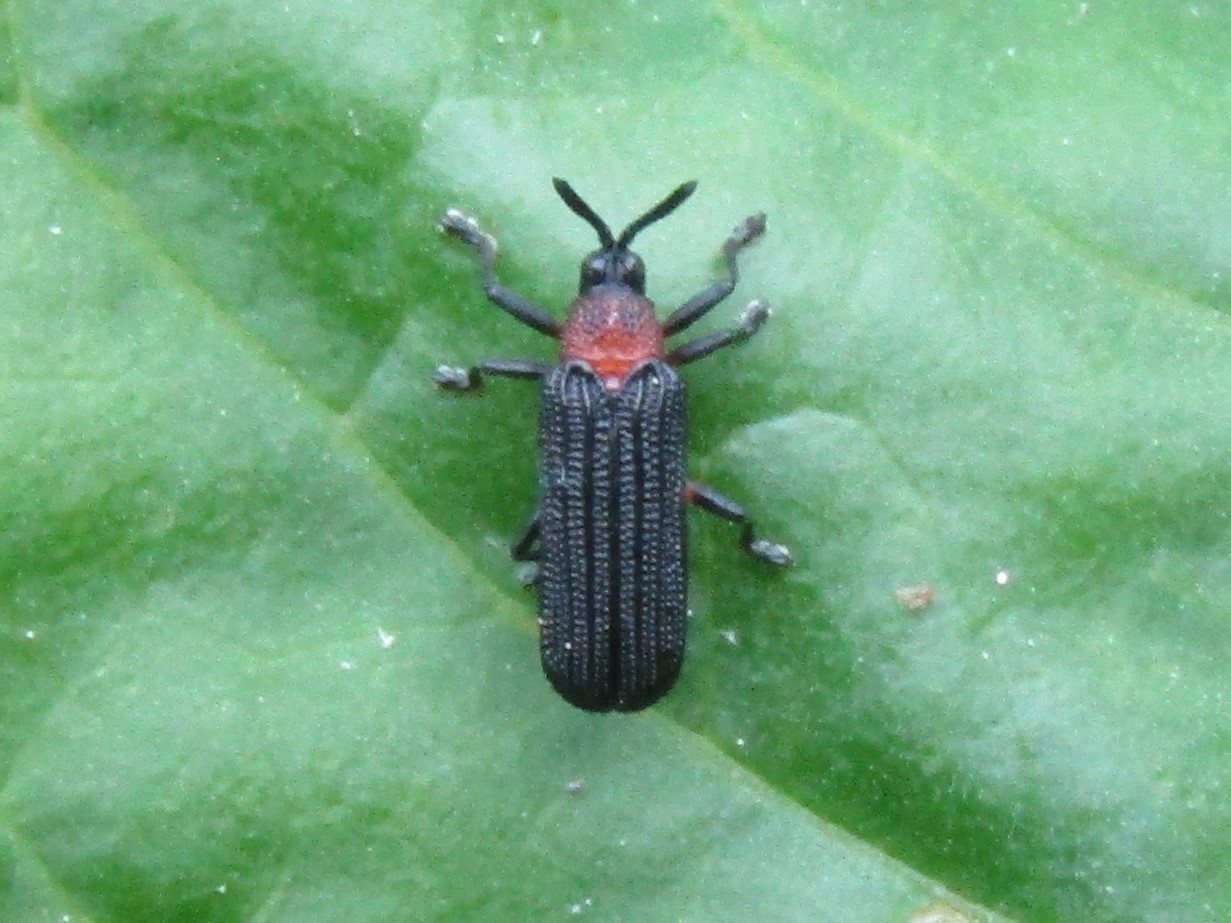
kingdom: Animalia
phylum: Arthropoda
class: Insecta
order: Coleoptera
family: Chrysomelidae
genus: Chalepus
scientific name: Chalepus bicolor
